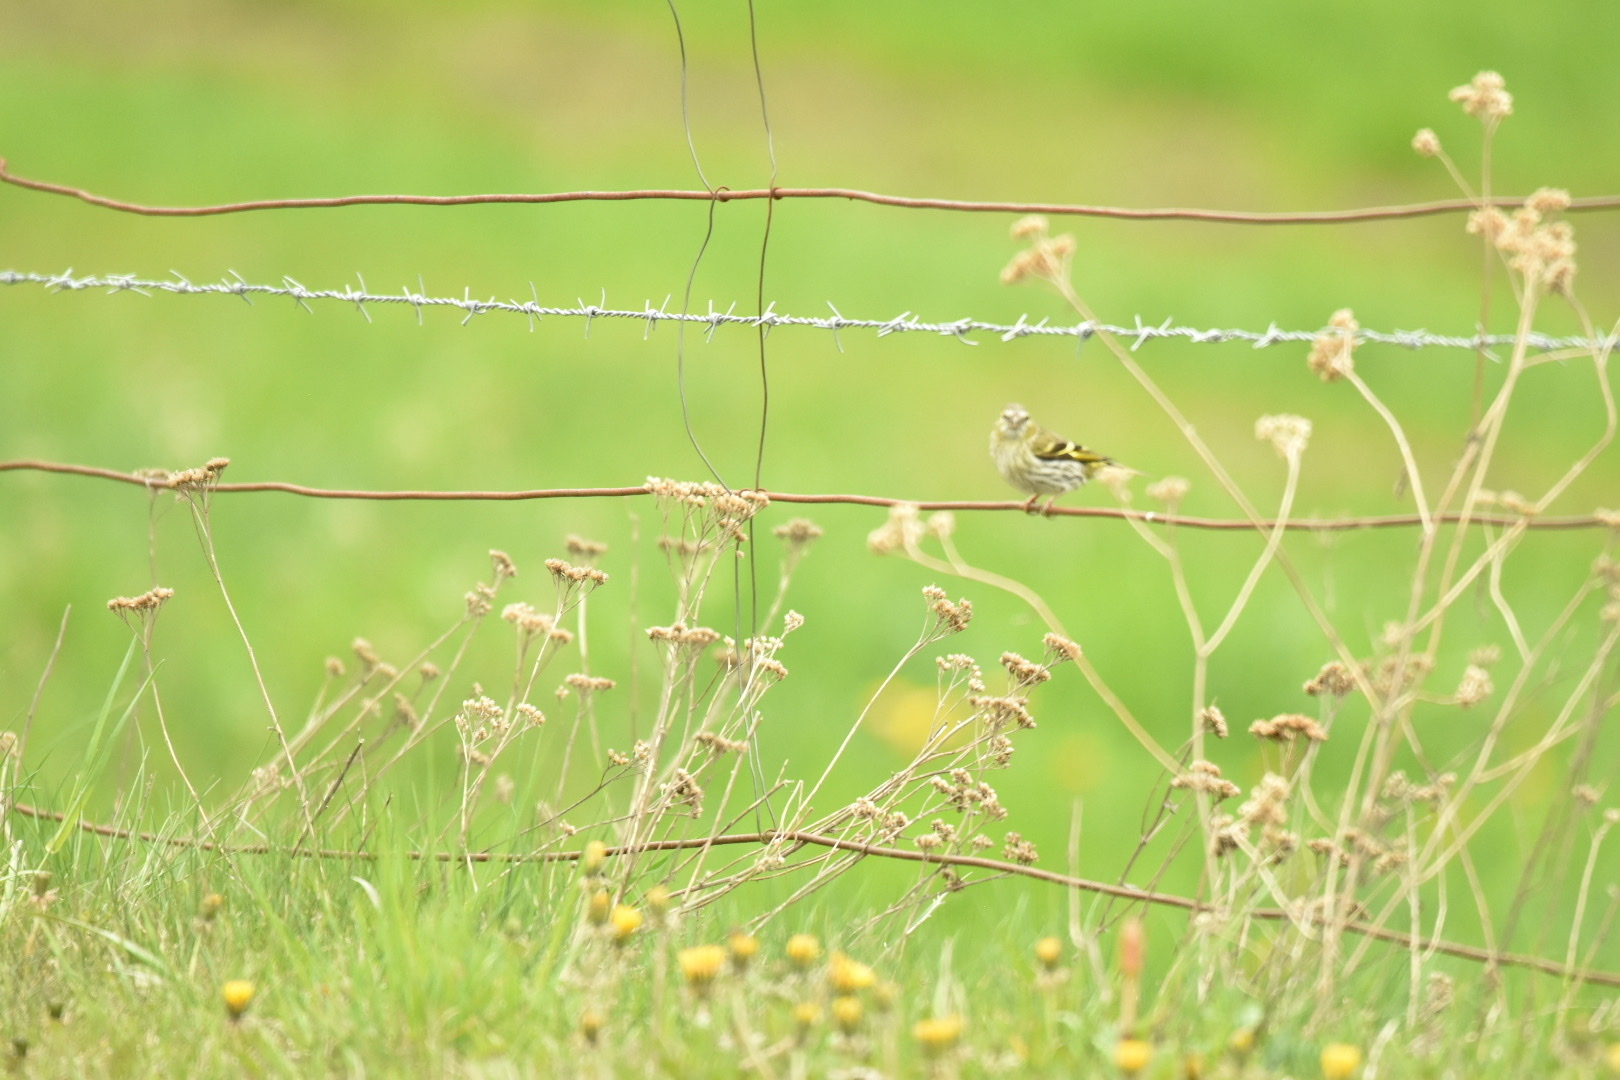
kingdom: Animalia
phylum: Chordata
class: Aves
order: Passeriformes
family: Fringillidae
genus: Spinus
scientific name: Spinus spinus
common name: Eurasian siskin
